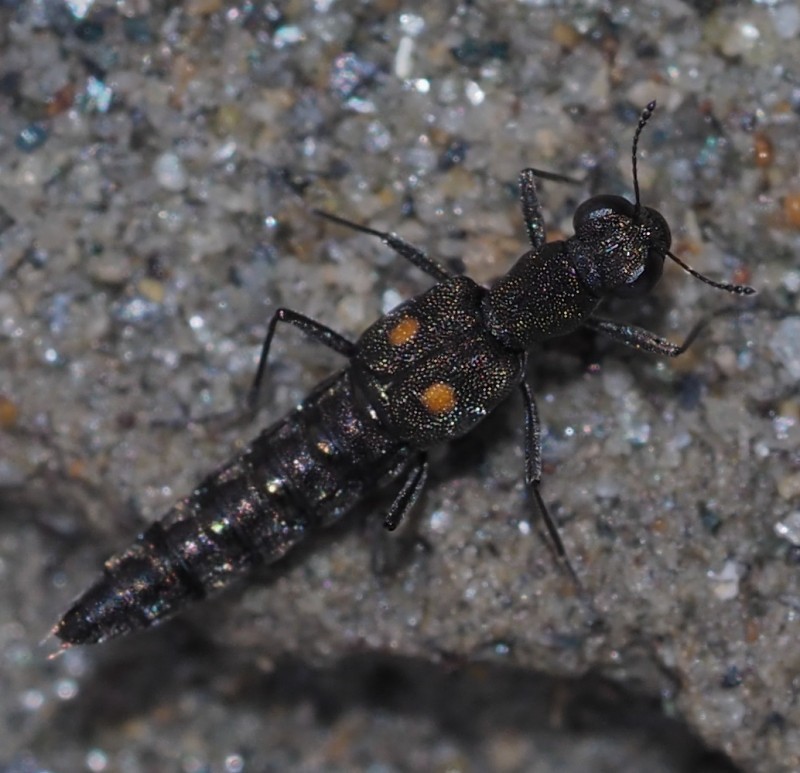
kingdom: Animalia
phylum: Arthropoda
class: Insecta
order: Coleoptera
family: Staphylinidae
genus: Stenus
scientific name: Stenus biguttatus
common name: Rove beetle
